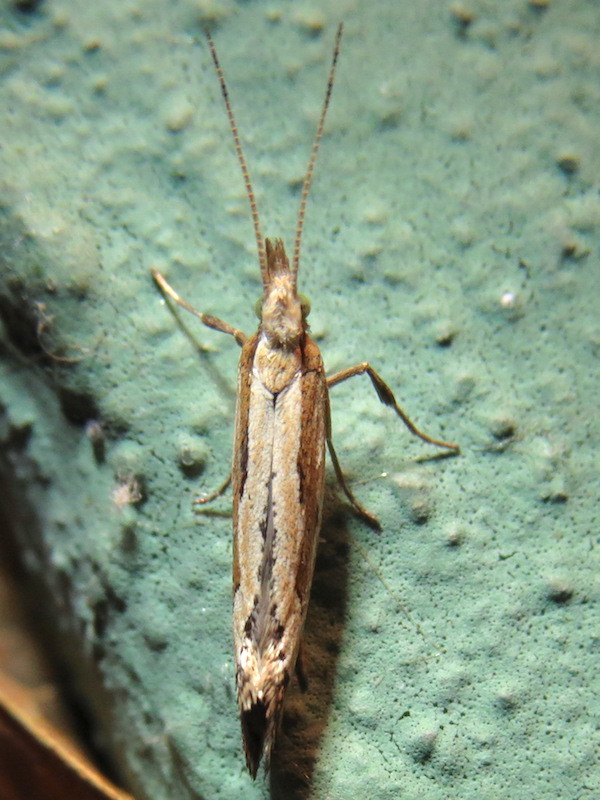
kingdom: Animalia
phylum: Arthropoda
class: Insecta
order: Lepidoptera
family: Plutellidae
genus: Plutella
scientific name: Plutella porrectella
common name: Dame's rocket moth
